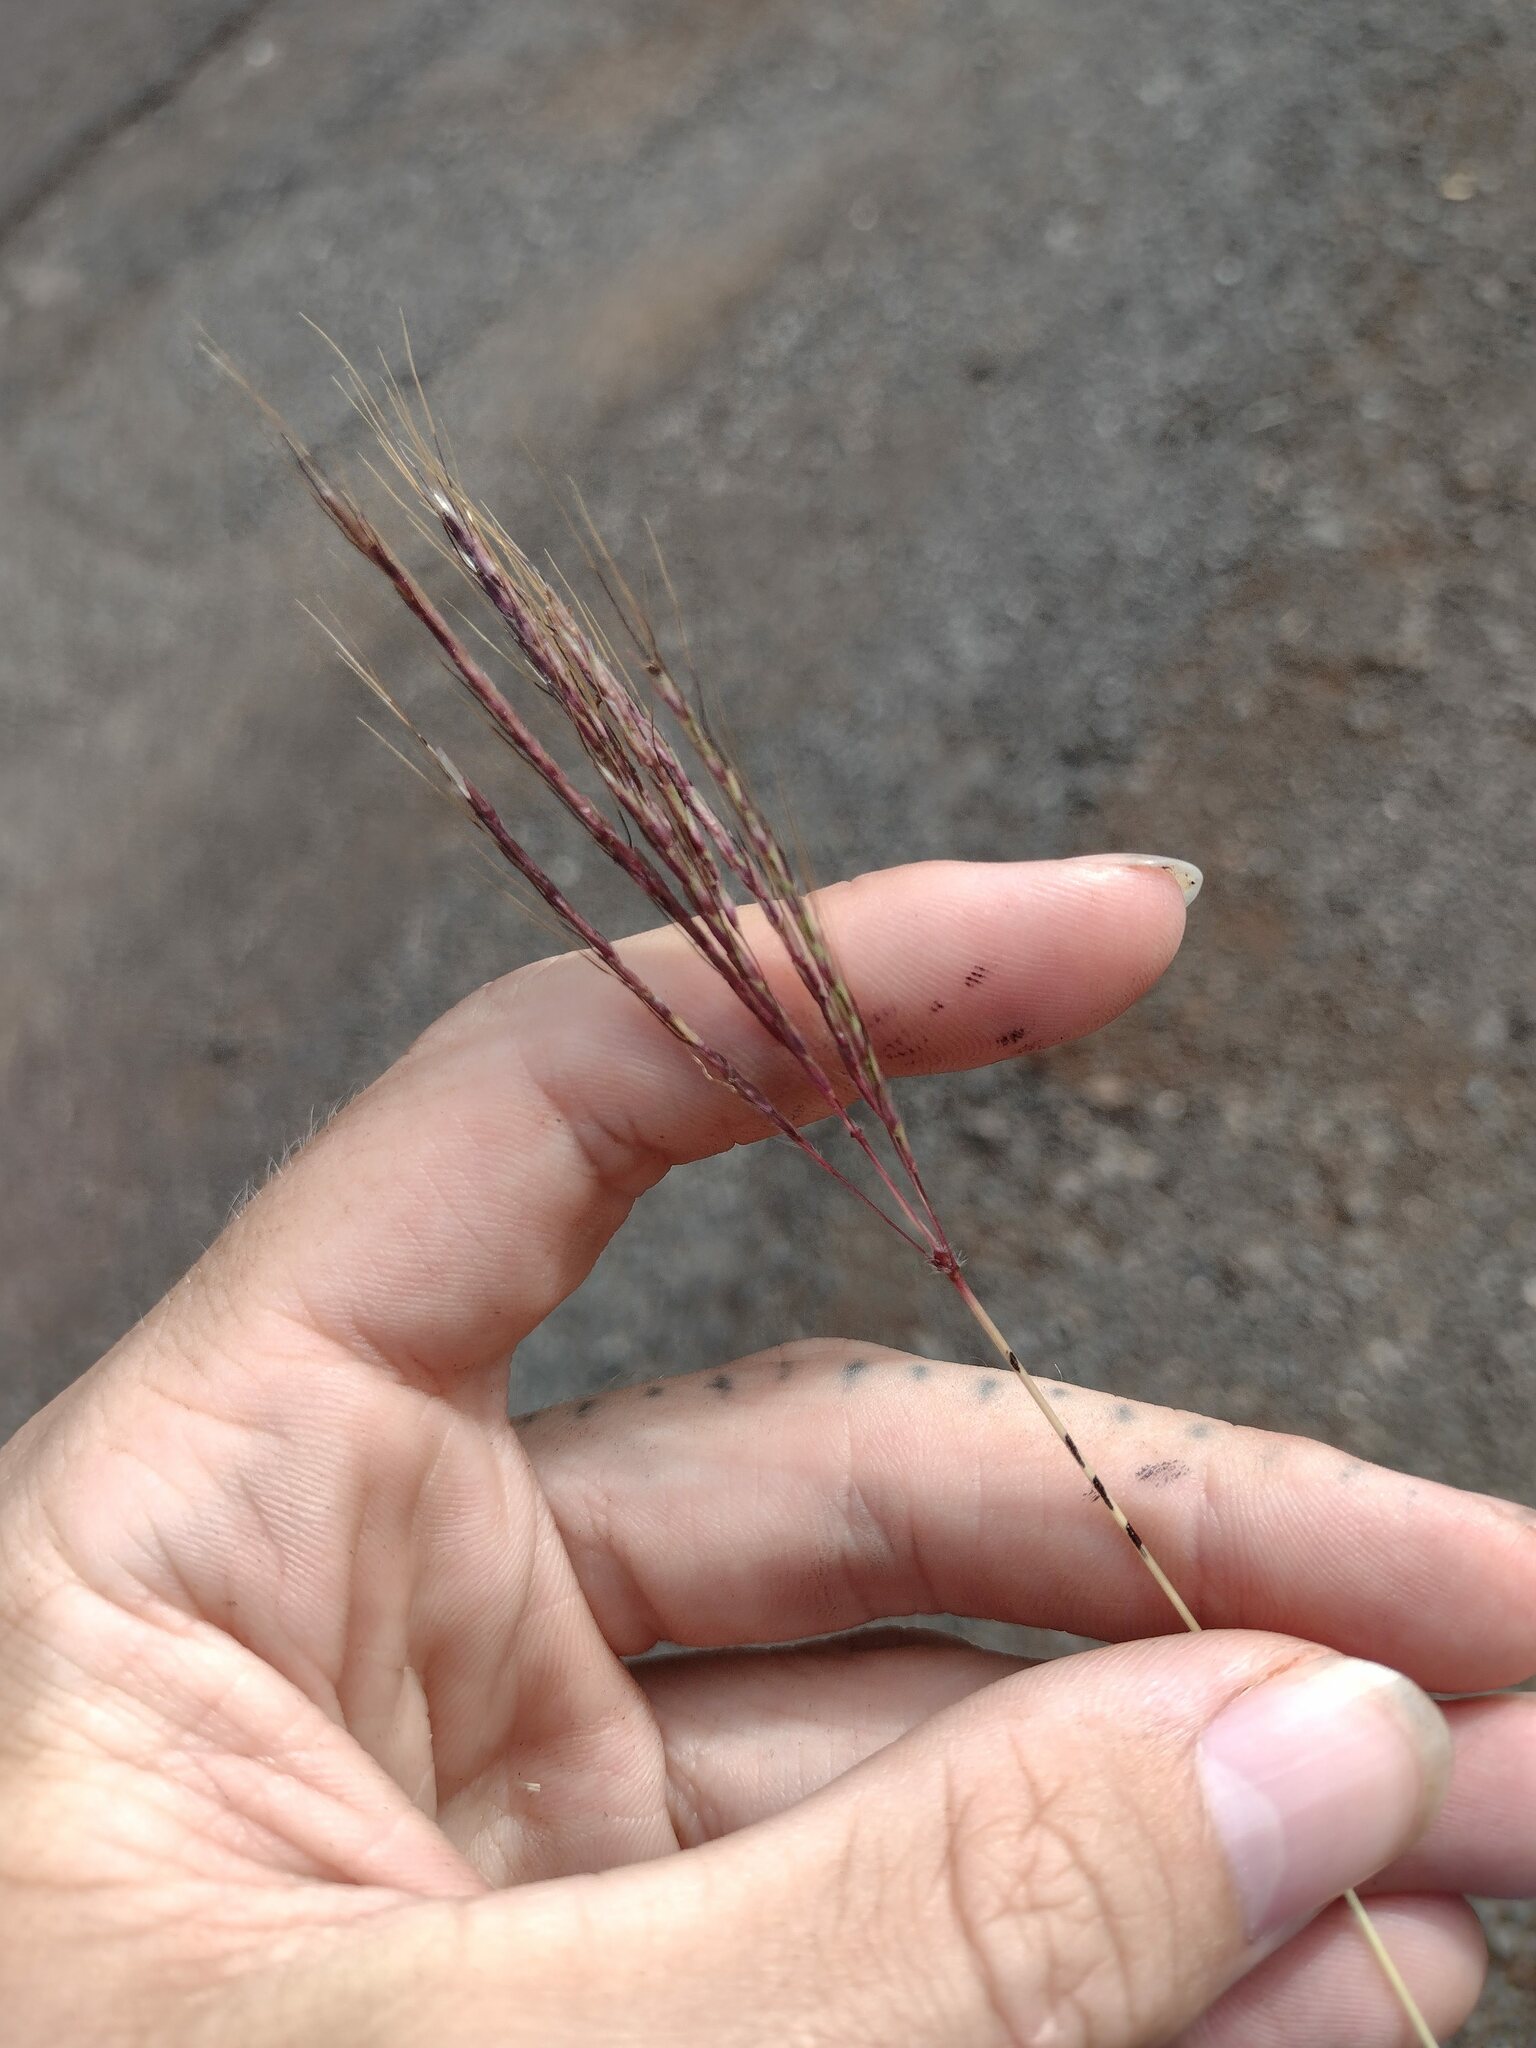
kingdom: Plantae
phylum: Tracheophyta
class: Liliopsida
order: Poales
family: Poaceae
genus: Dichanthium
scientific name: Dichanthium annulatum
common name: Kleberg's bluestem
